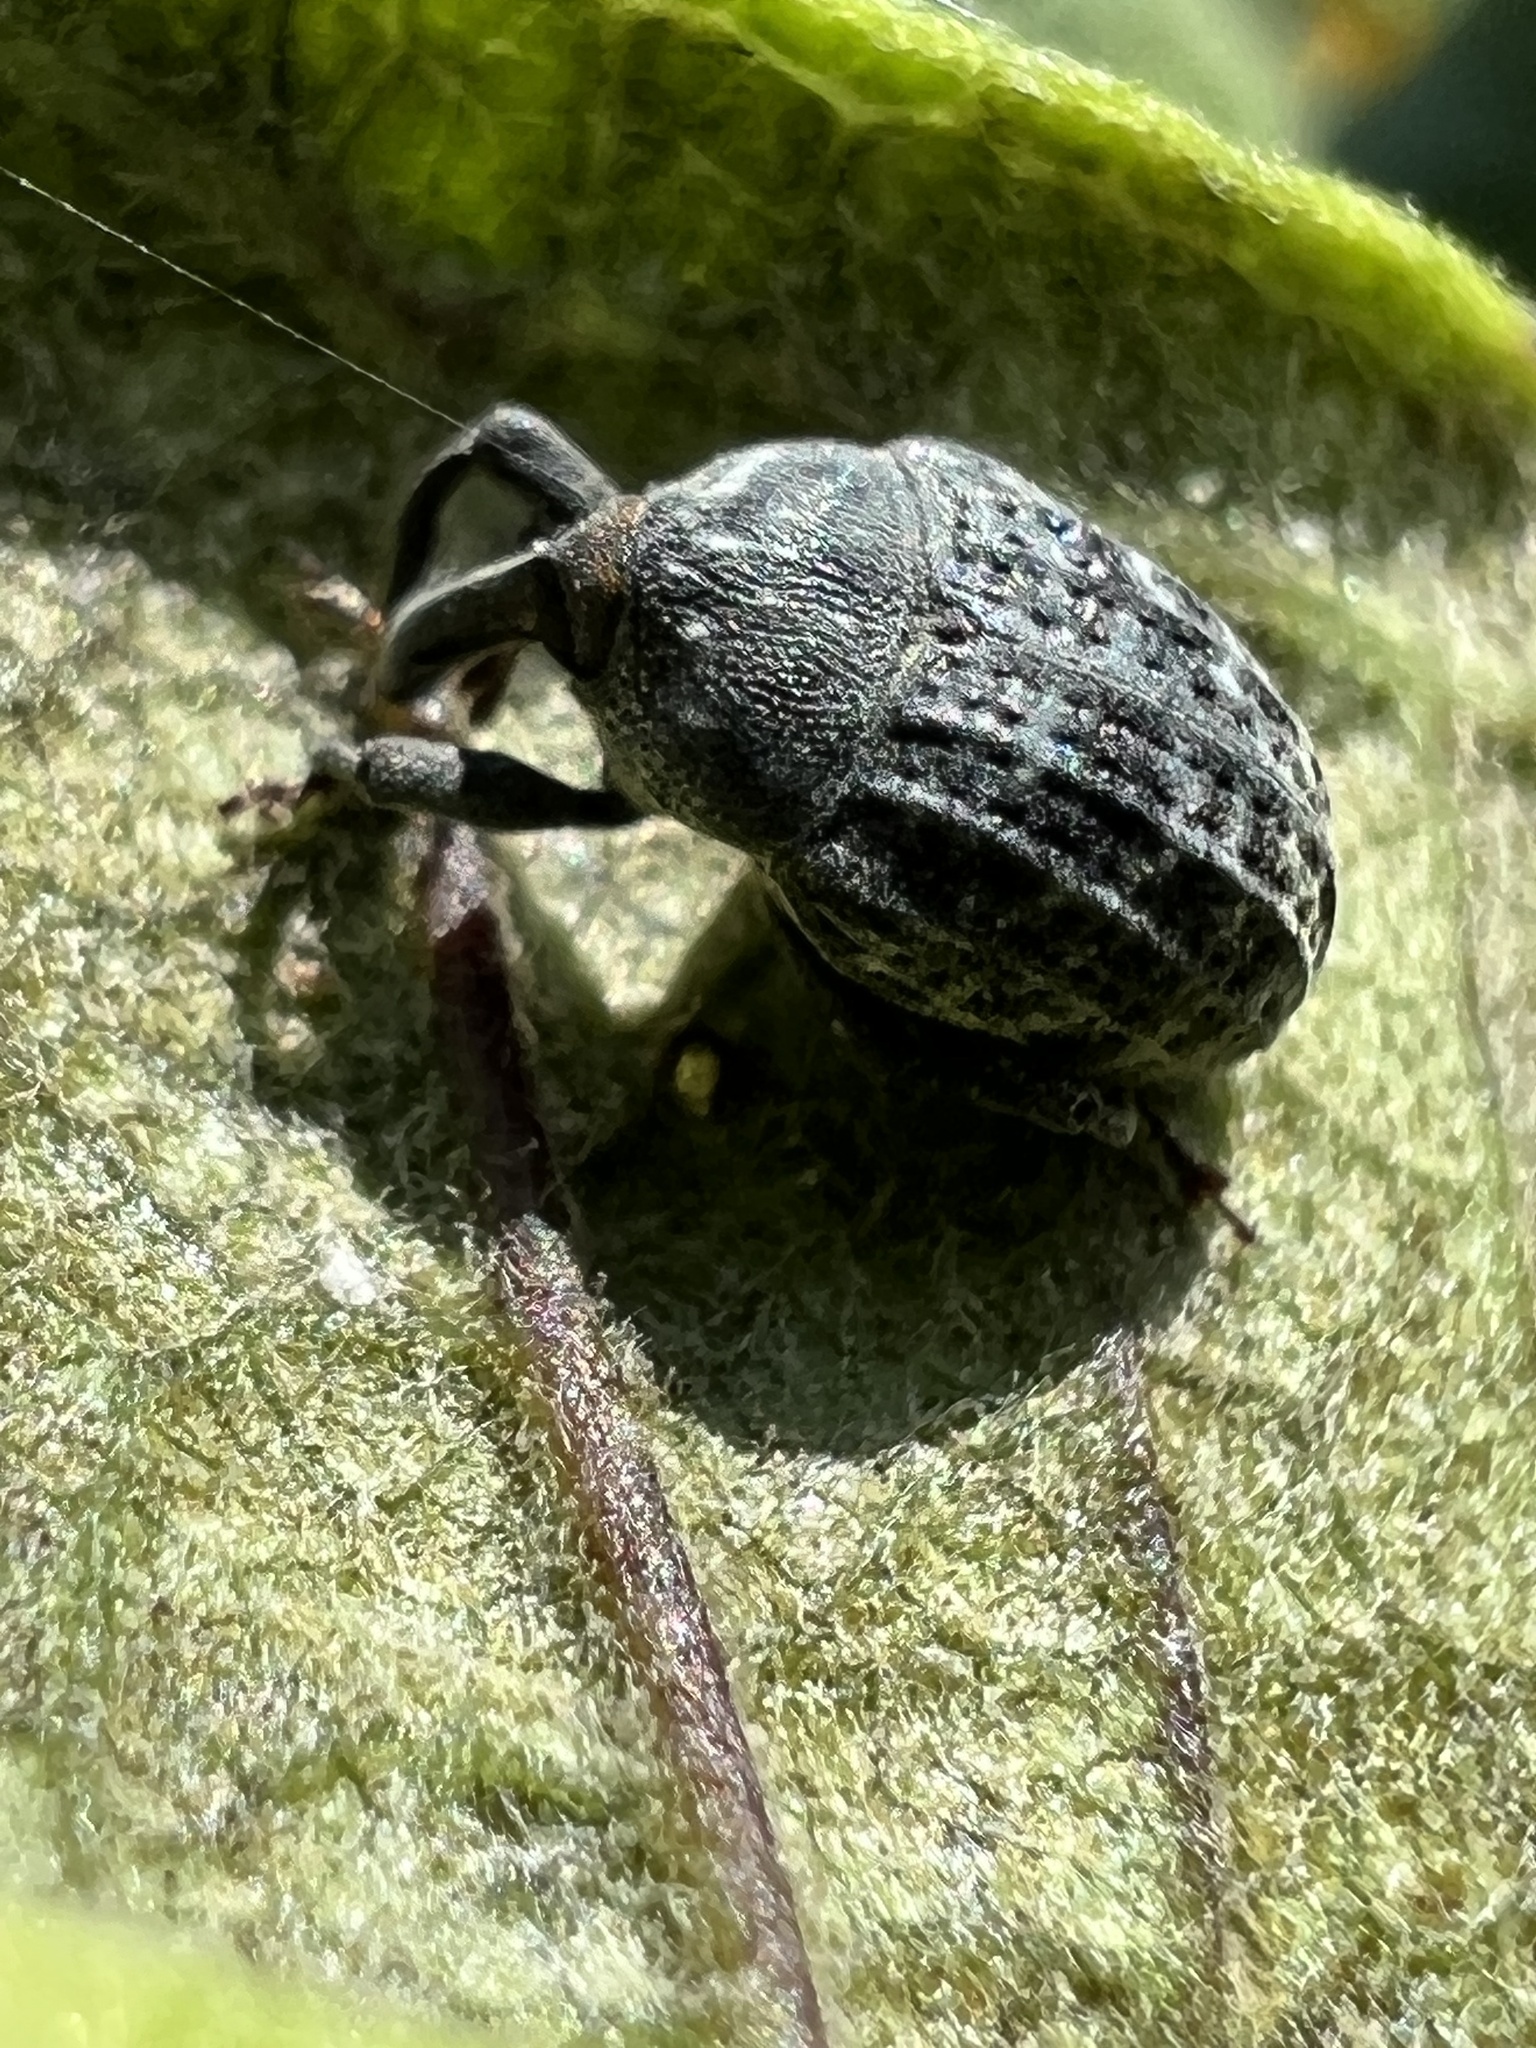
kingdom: Animalia
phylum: Arthropoda
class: Insecta
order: Coleoptera
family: Curculionidae
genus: Rhyssomatus
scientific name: Rhyssomatus lineaticollis
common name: Milkweed stem weevil
